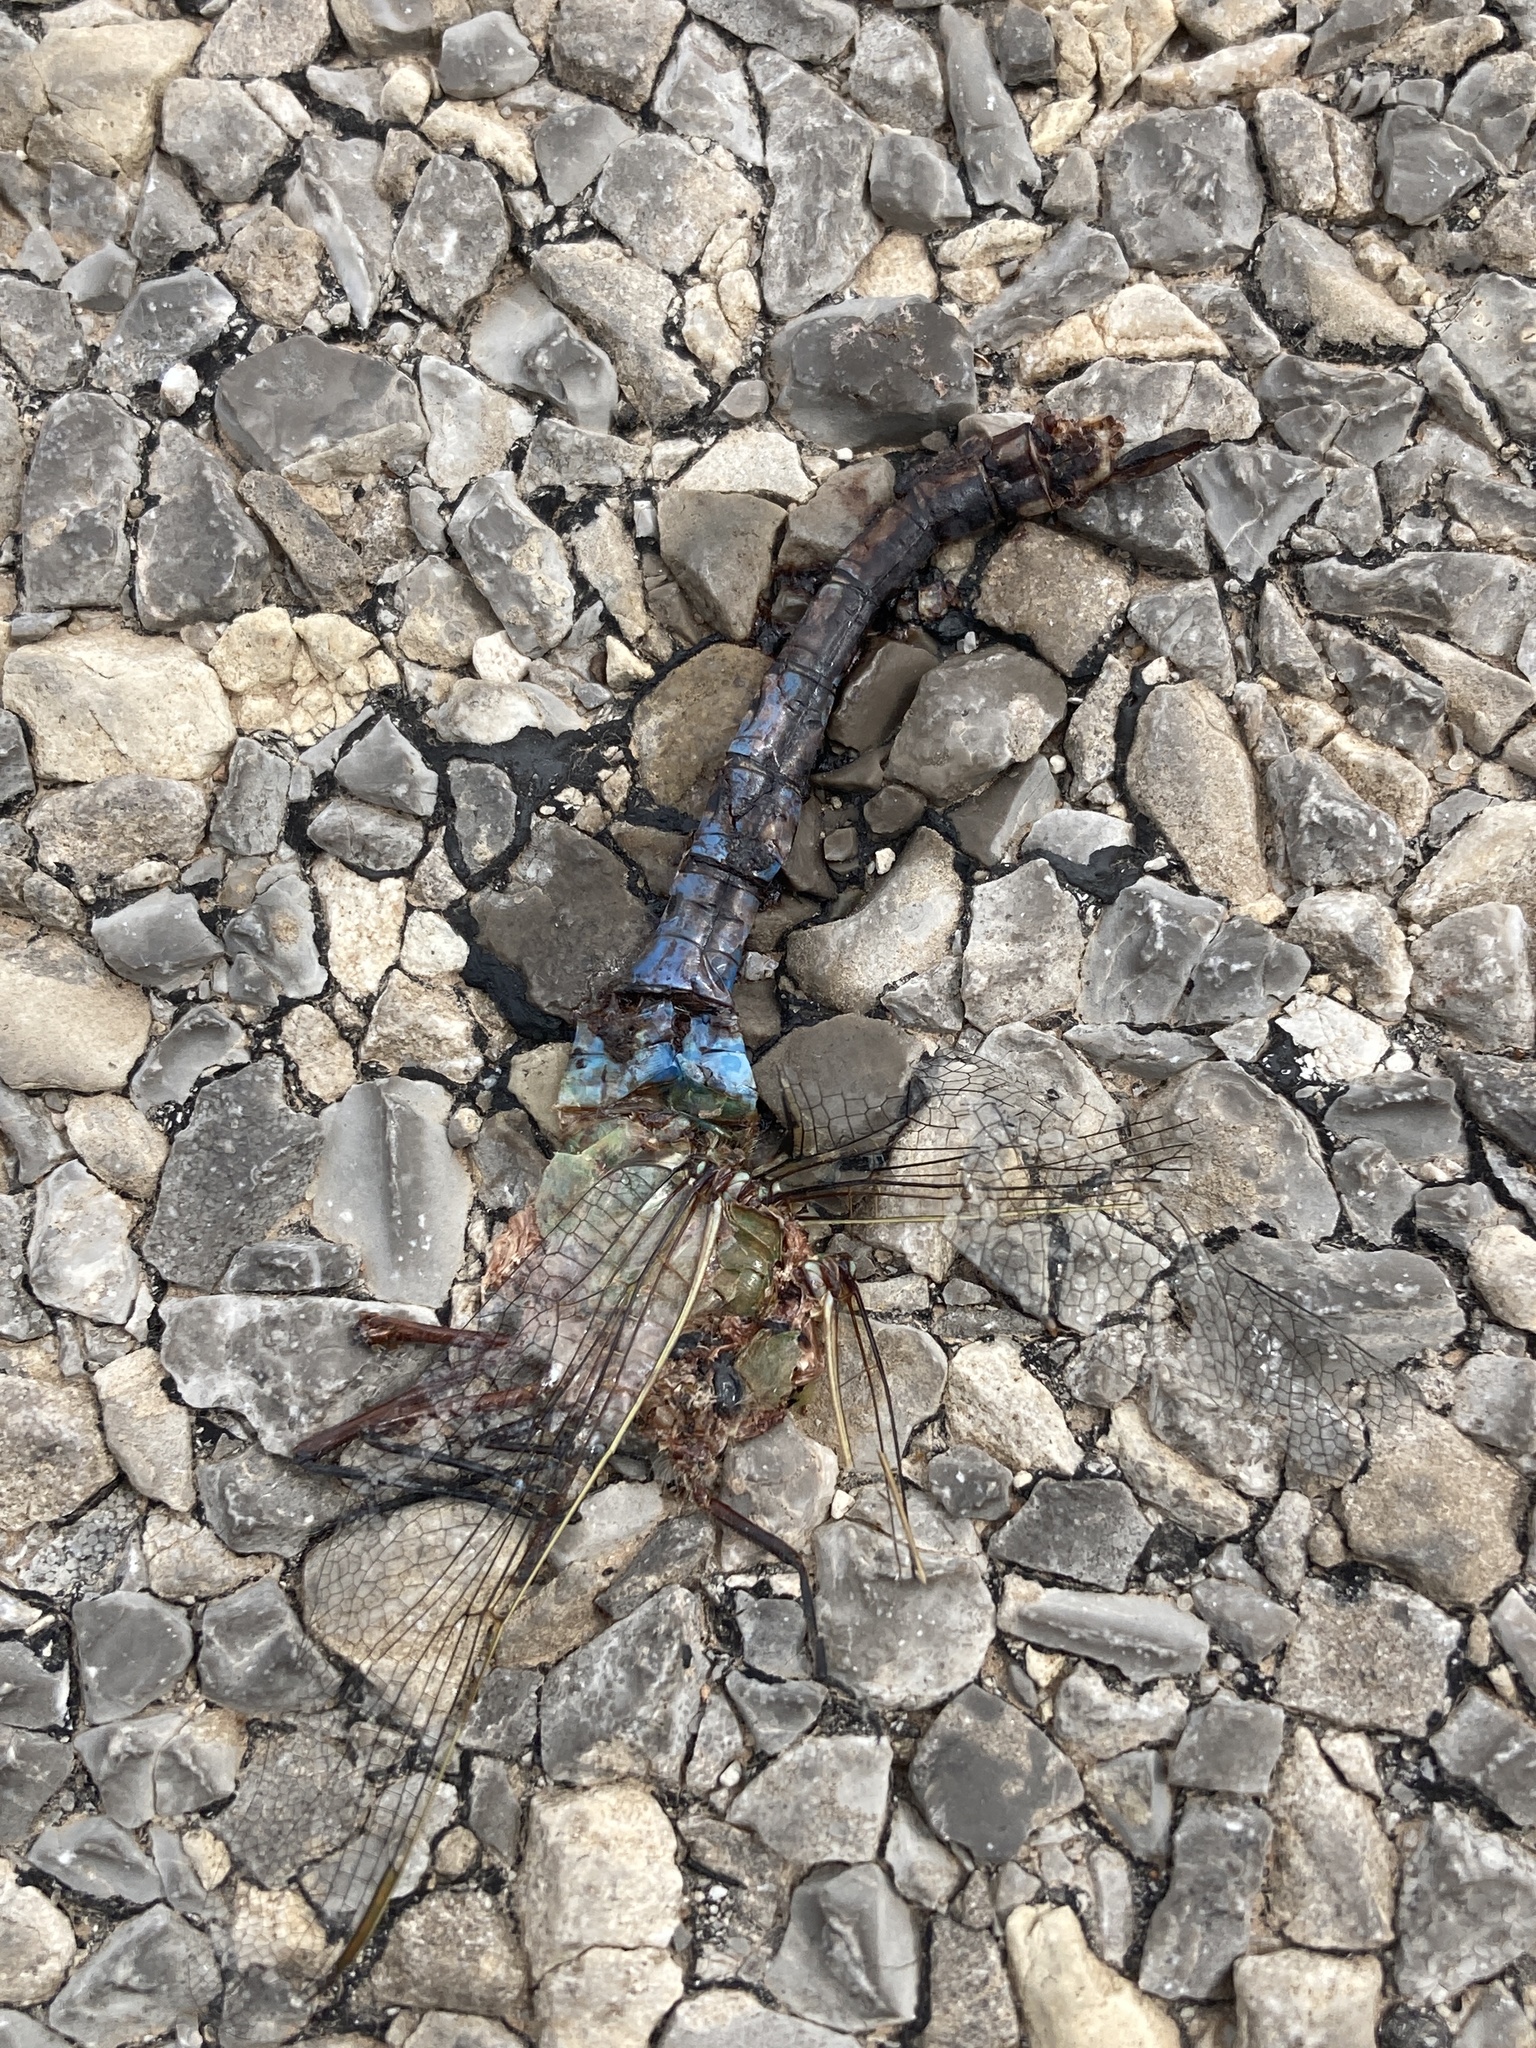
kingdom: Animalia
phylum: Arthropoda
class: Insecta
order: Odonata
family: Aeshnidae
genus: Anax
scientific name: Anax junius
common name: Common green darner
